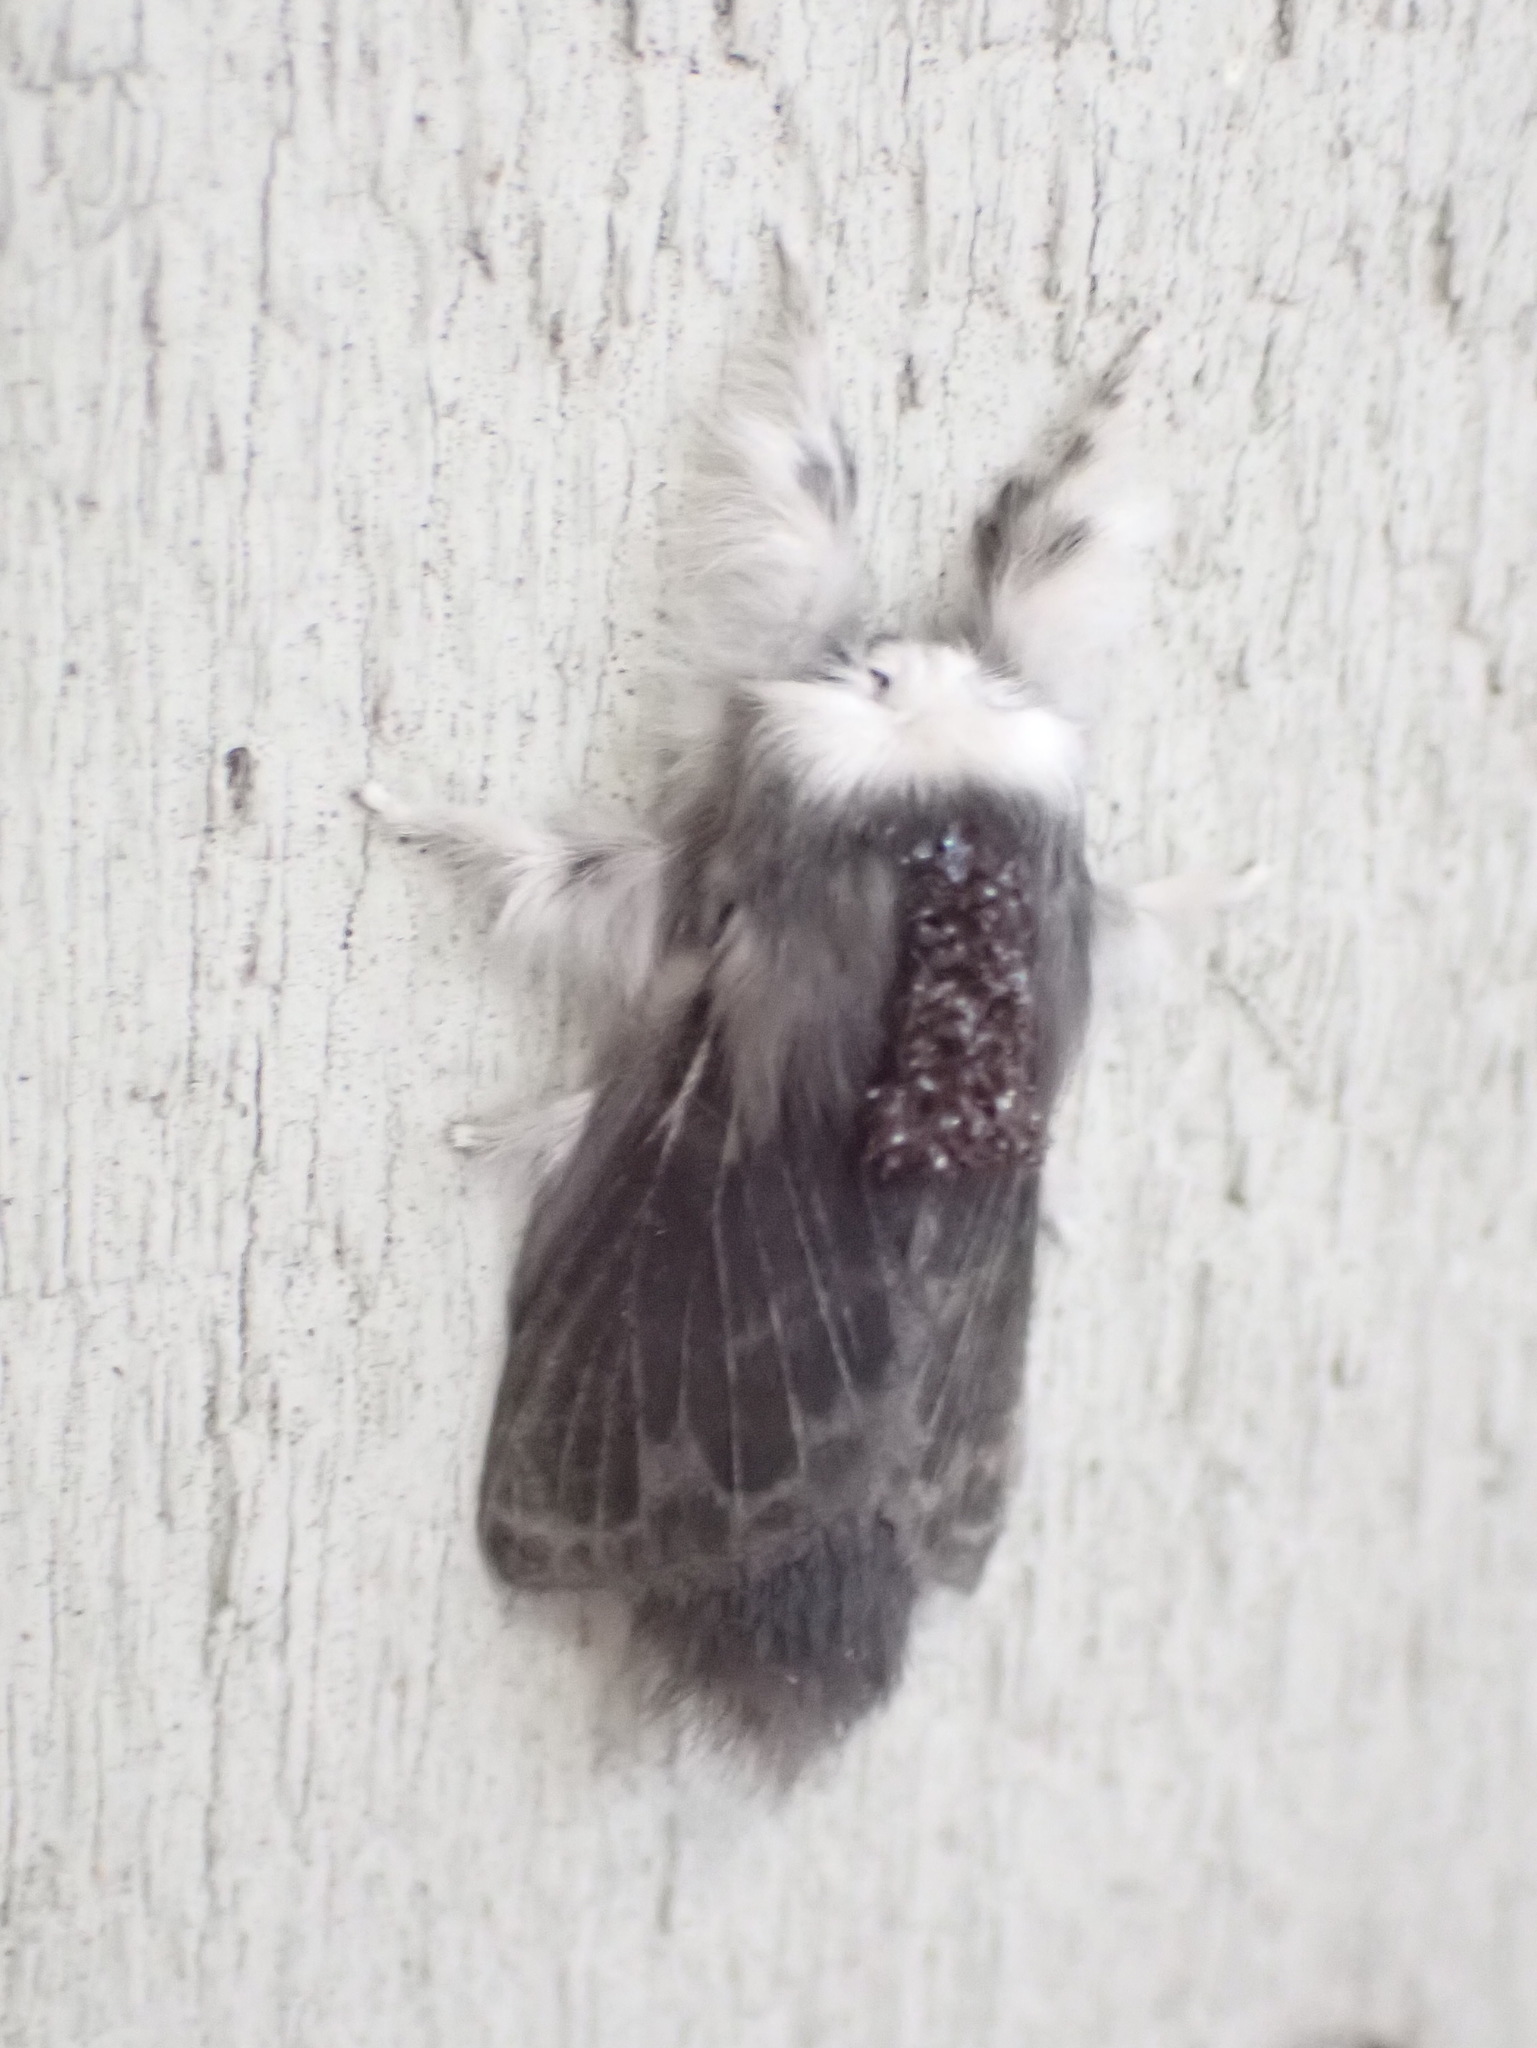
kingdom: Animalia
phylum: Arthropoda
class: Insecta
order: Lepidoptera
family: Lasiocampidae
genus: Tolype
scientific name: Tolype laricis
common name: Larch tolype moth
